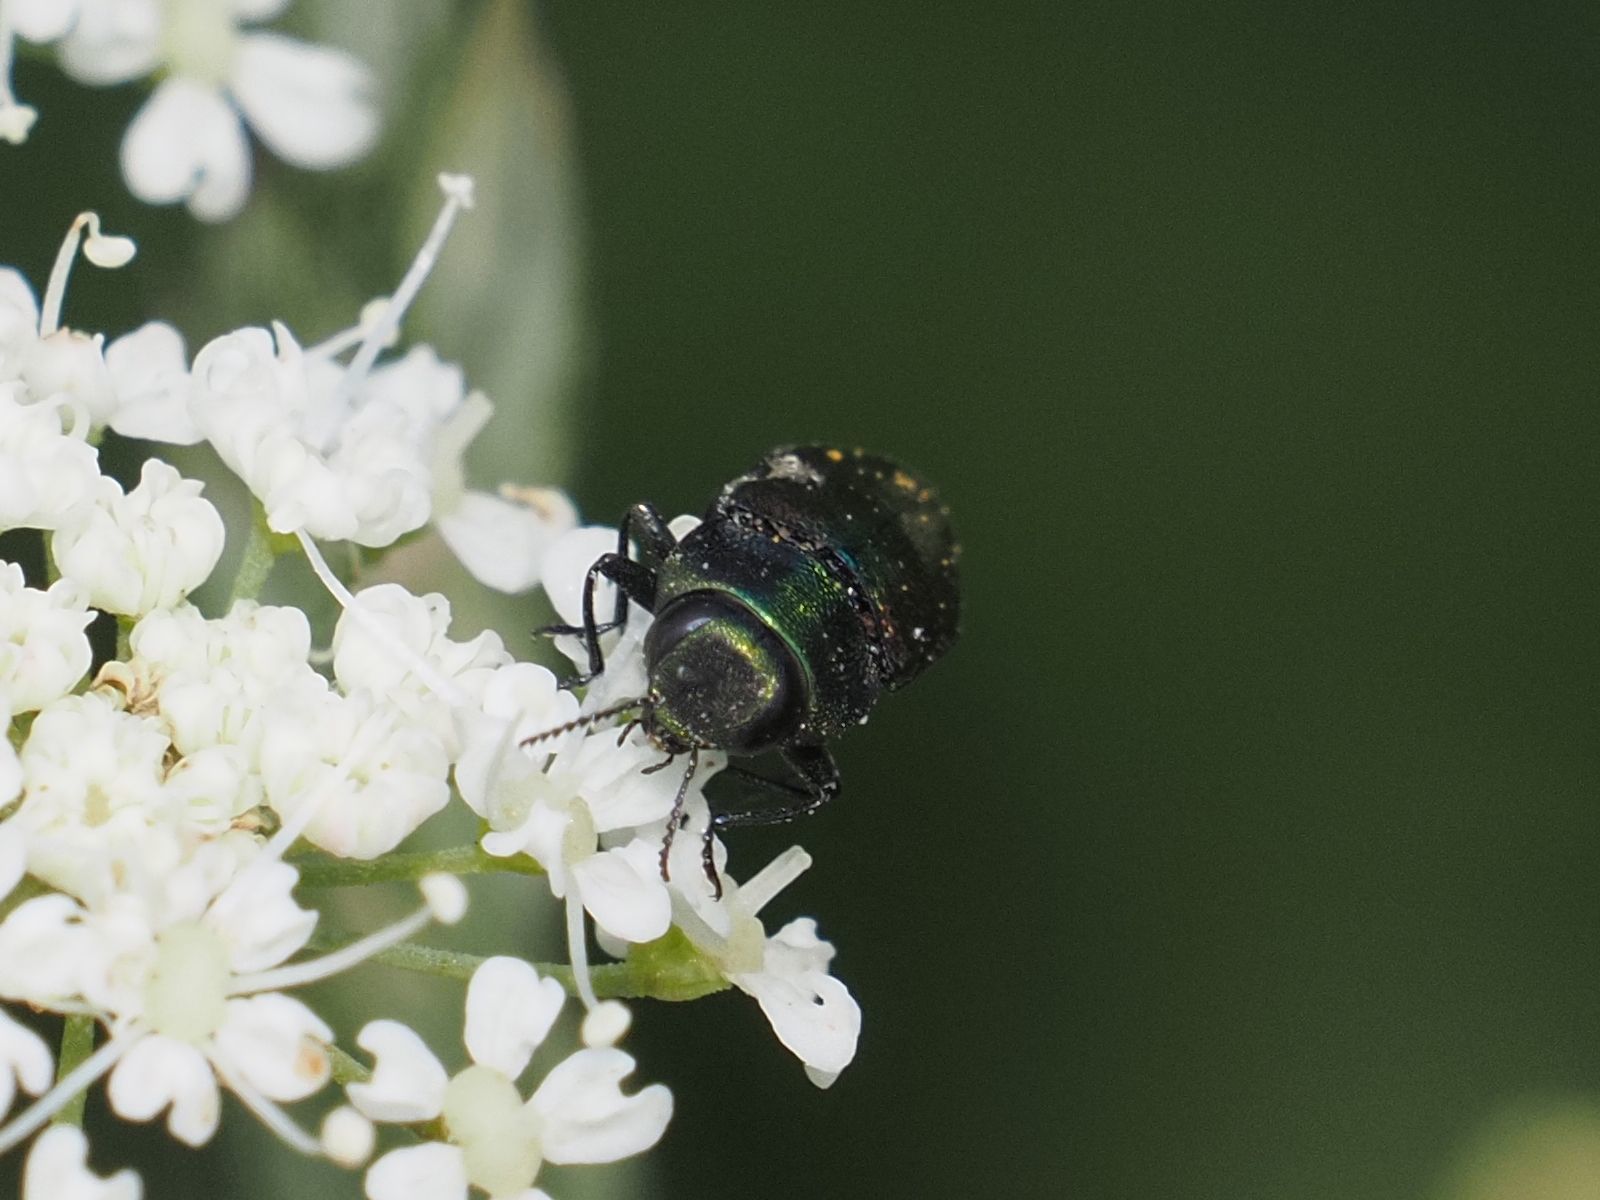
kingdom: Animalia
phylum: Arthropoda
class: Insecta
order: Coleoptera
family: Buprestidae
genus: Anthaxia
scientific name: Anthaxia podolica
